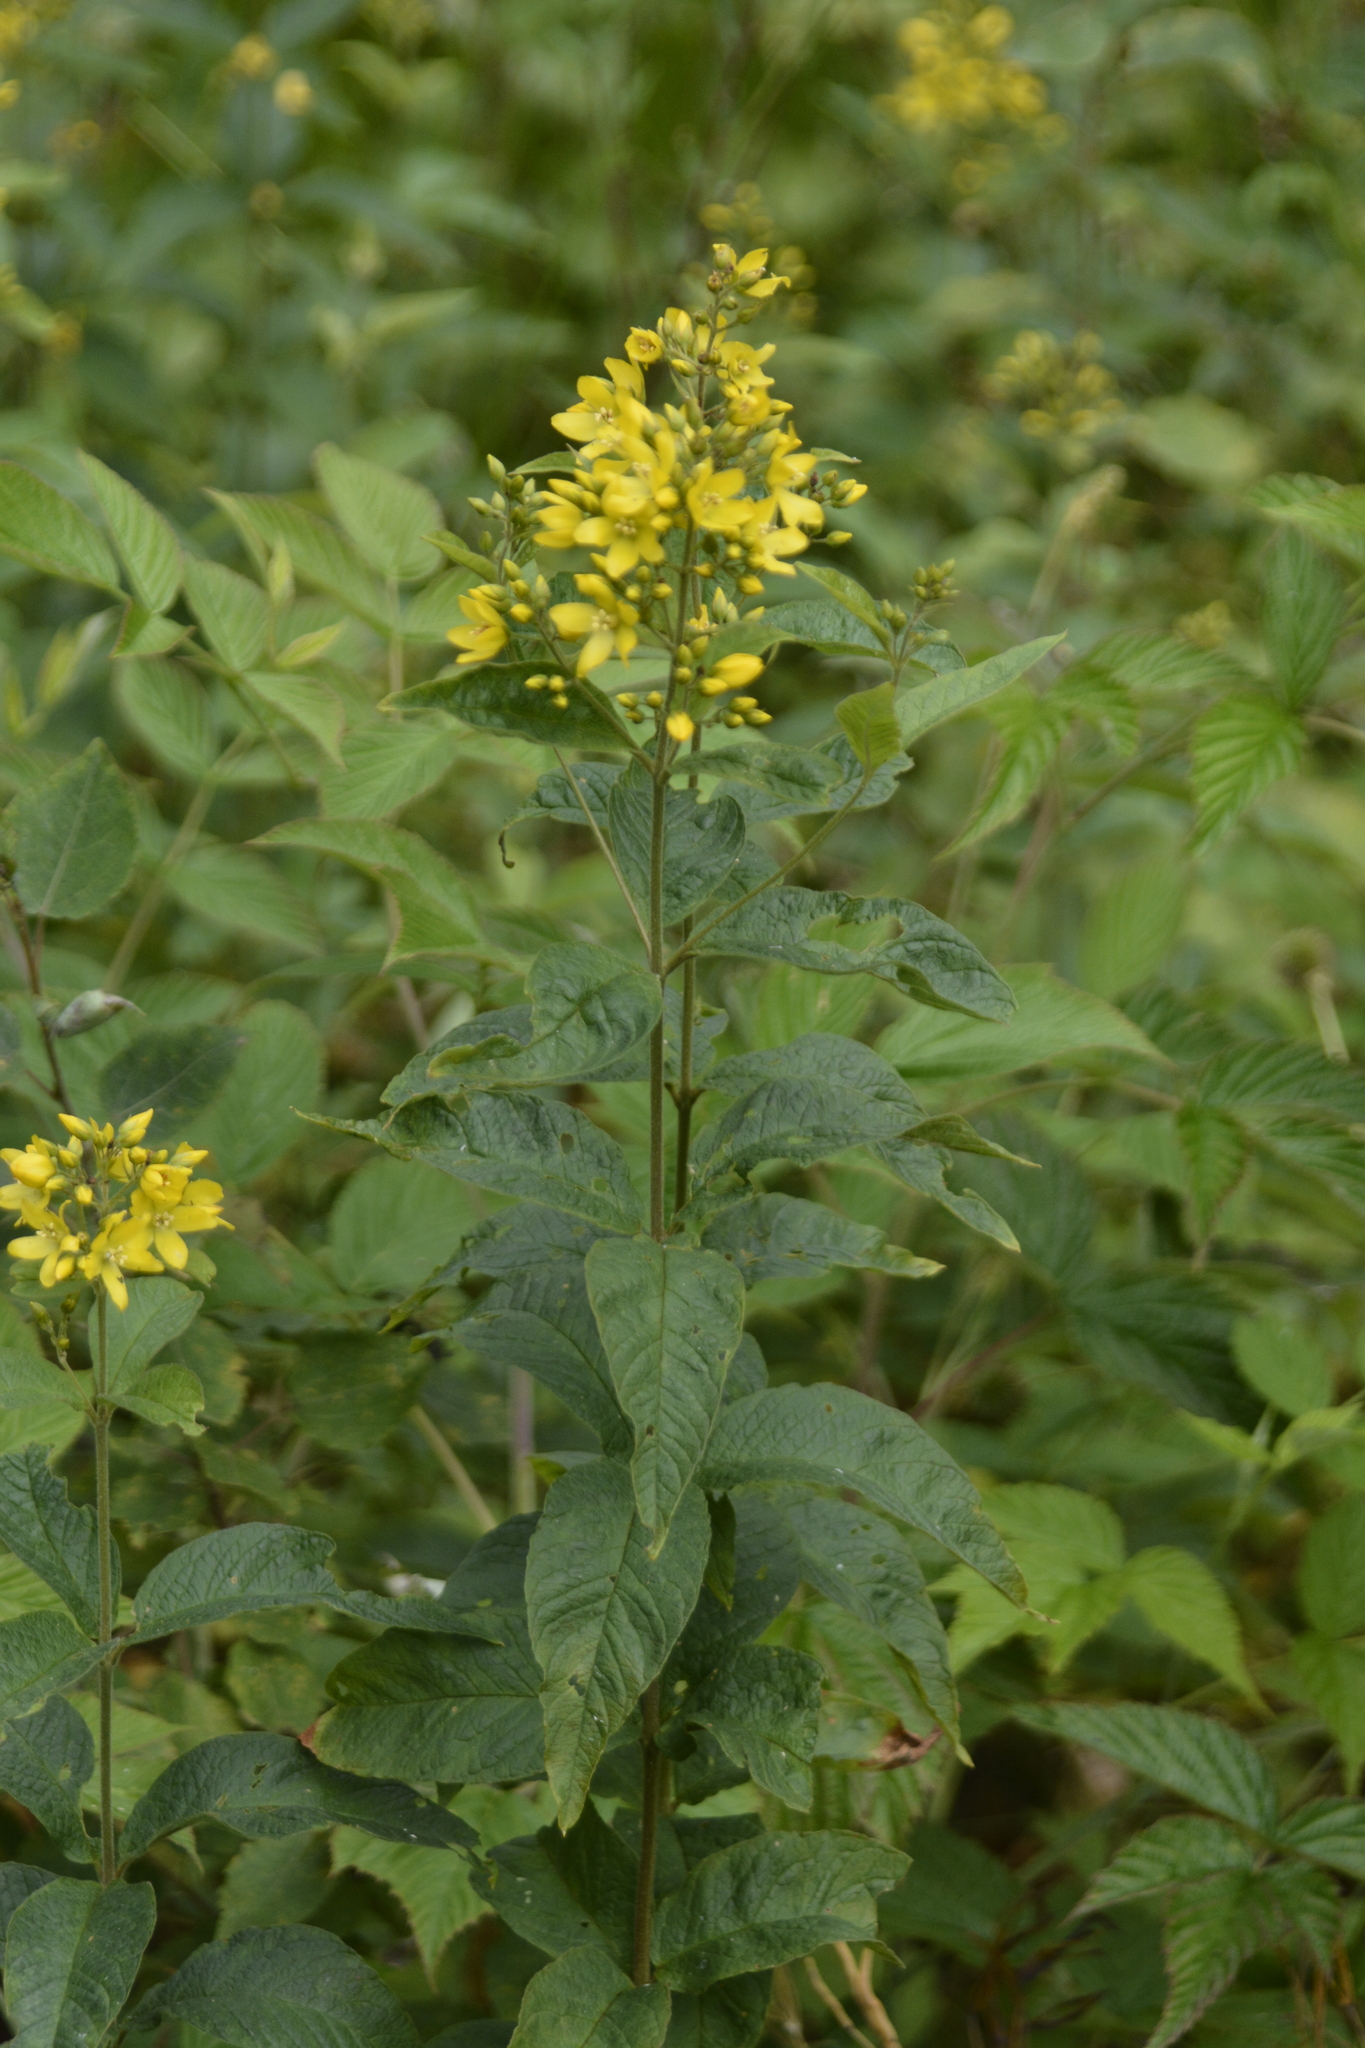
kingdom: Plantae
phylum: Tracheophyta
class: Magnoliopsida
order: Ericales
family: Primulaceae
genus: Lysimachia
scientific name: Lysimachia vulgaris
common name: Yellow loosestrife
